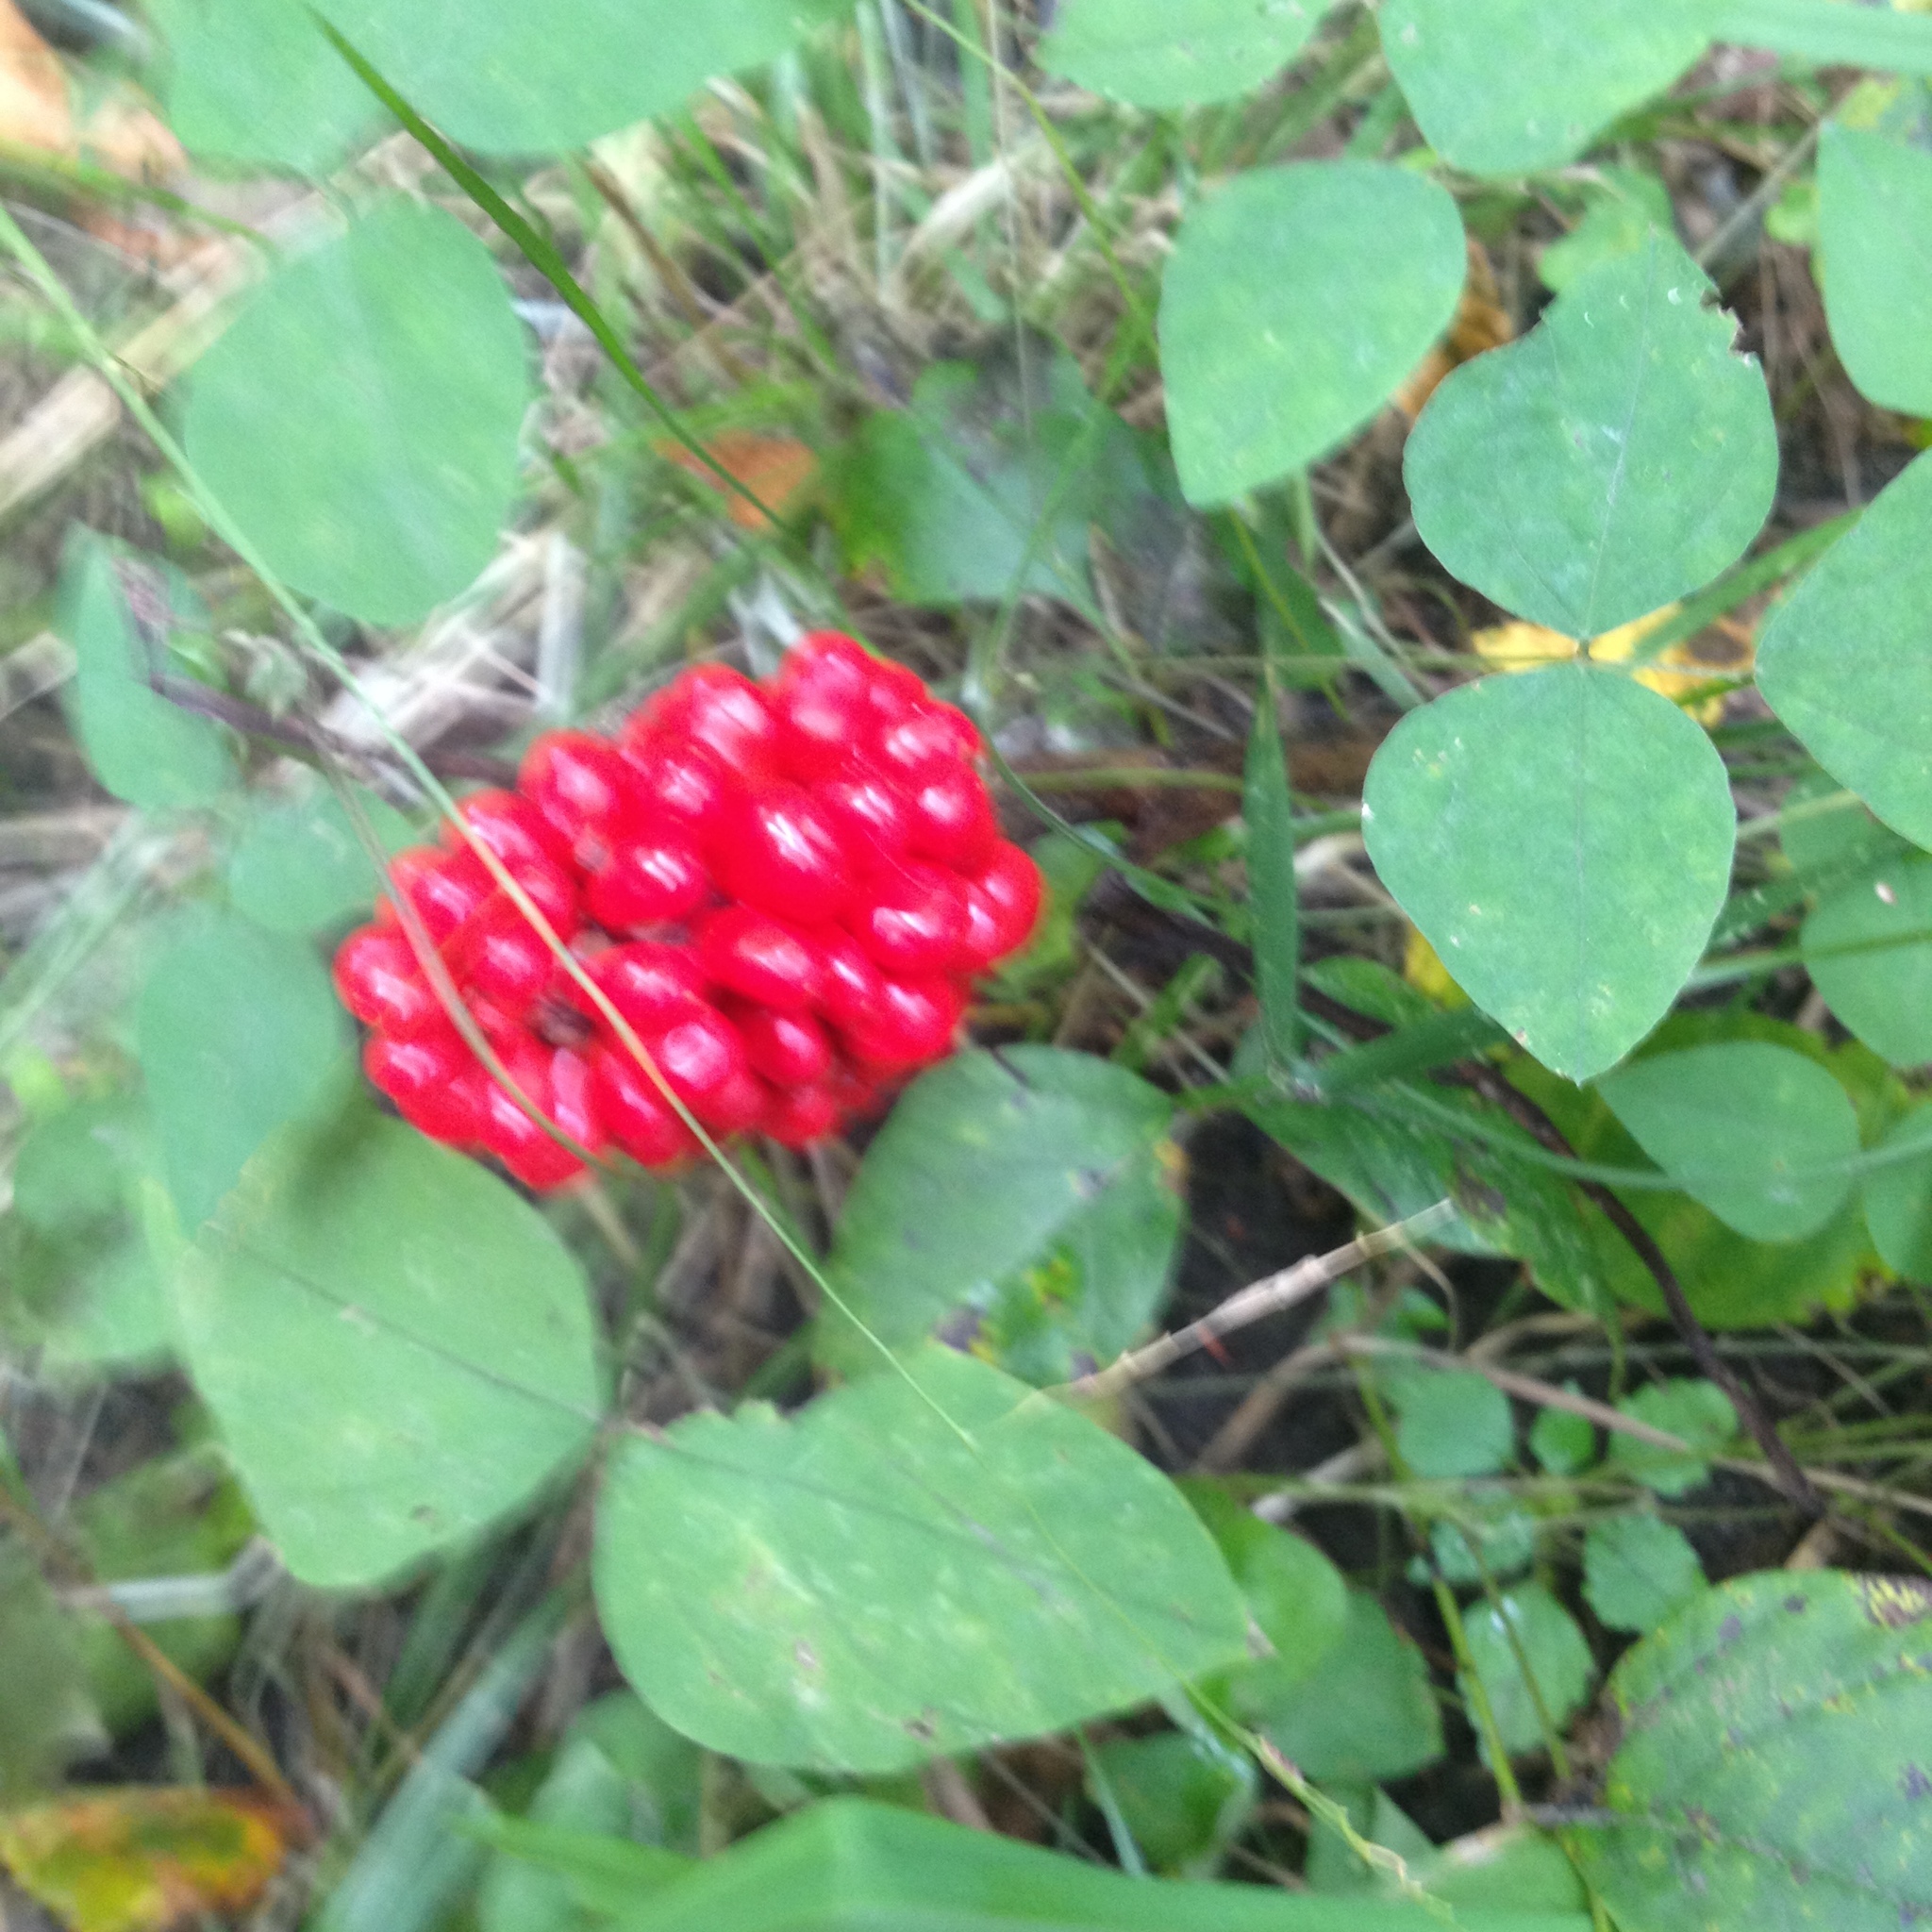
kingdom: Plantae
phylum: Tracheophyta
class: Liliopsida
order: Alismatales
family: Araceae
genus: Arisaema
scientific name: Arisaema triphyllum
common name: Jack-in-the-pulpit
